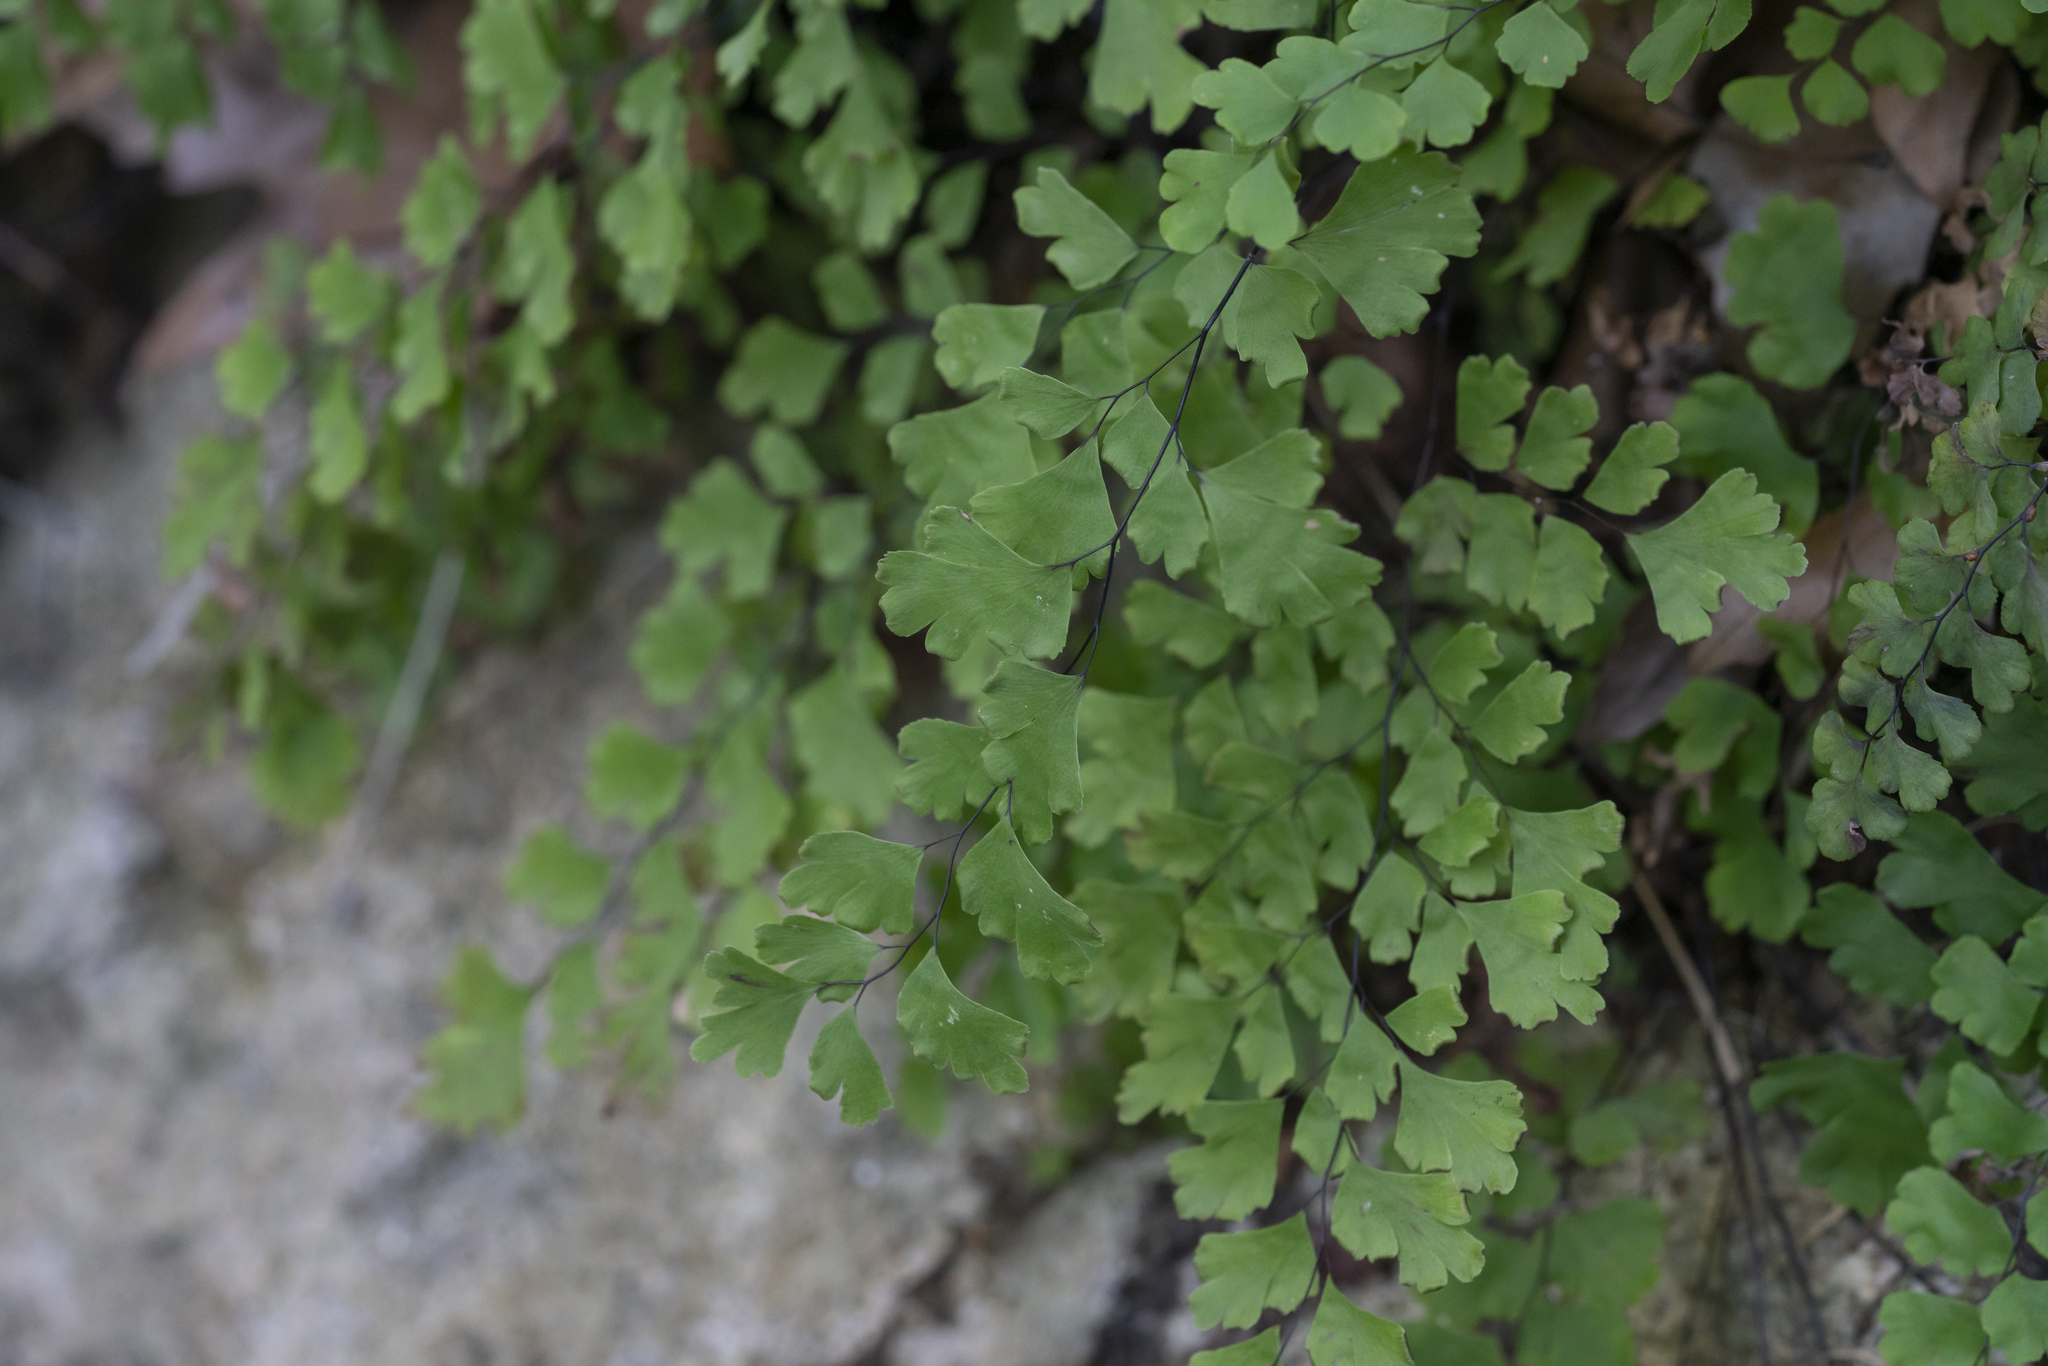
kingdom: Plantae
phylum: Tracheophyta
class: Polypodiopsida
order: Polypodiales
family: Pteridaceae
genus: Adiantum
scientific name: Adiantum capillus-veneris
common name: Maidenhair fern
